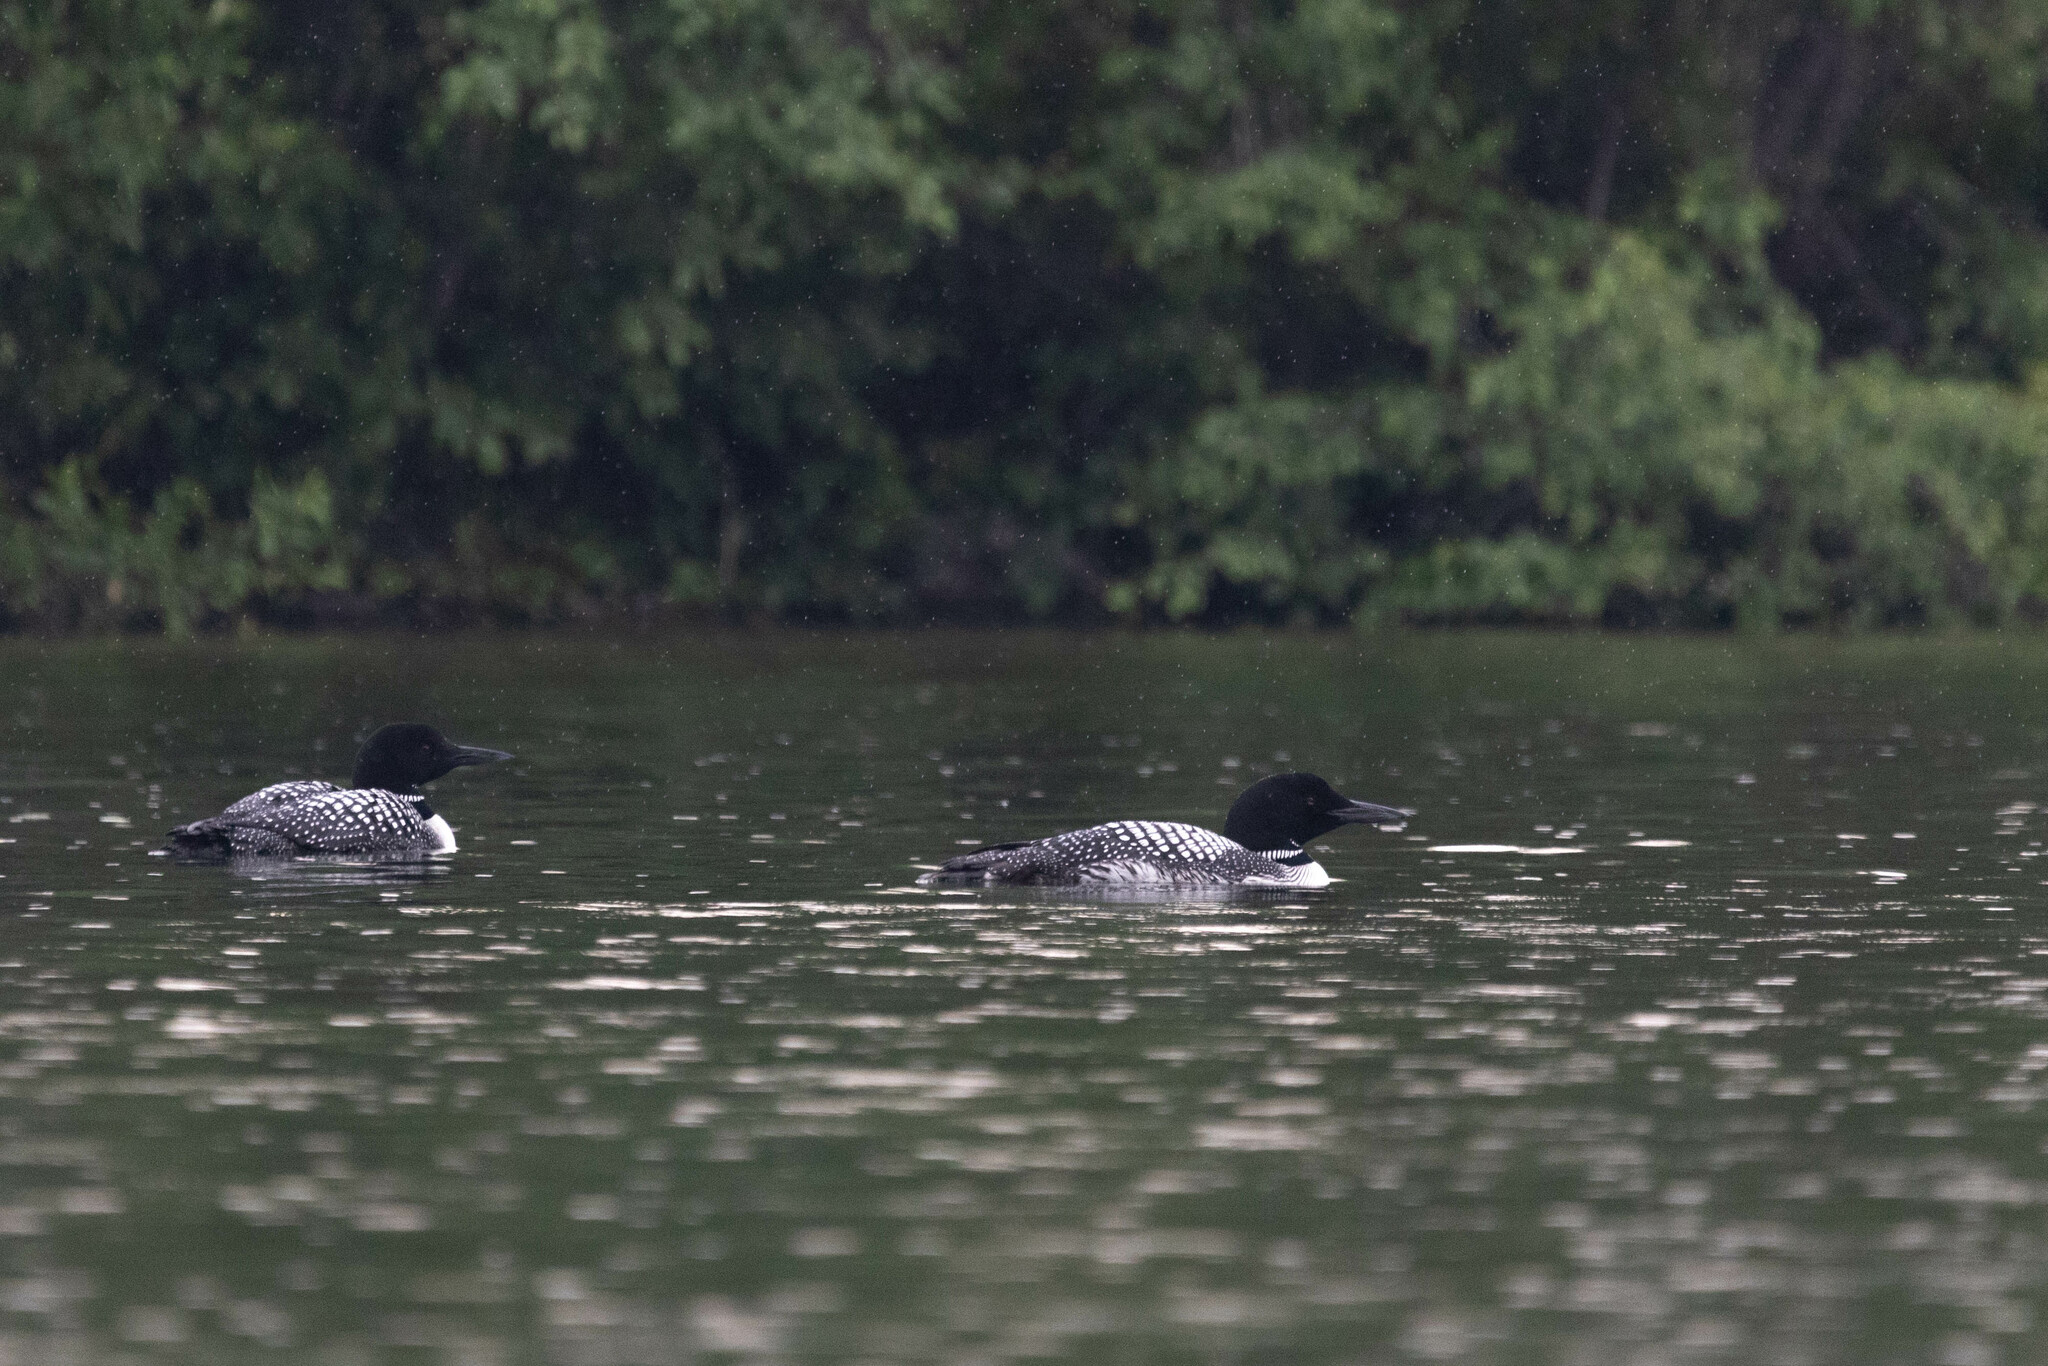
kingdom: Animalia
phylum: Chordata
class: Aves
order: Gaviiformes
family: Gaviidae
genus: Gavia
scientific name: Gavia immer
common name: Common loon
